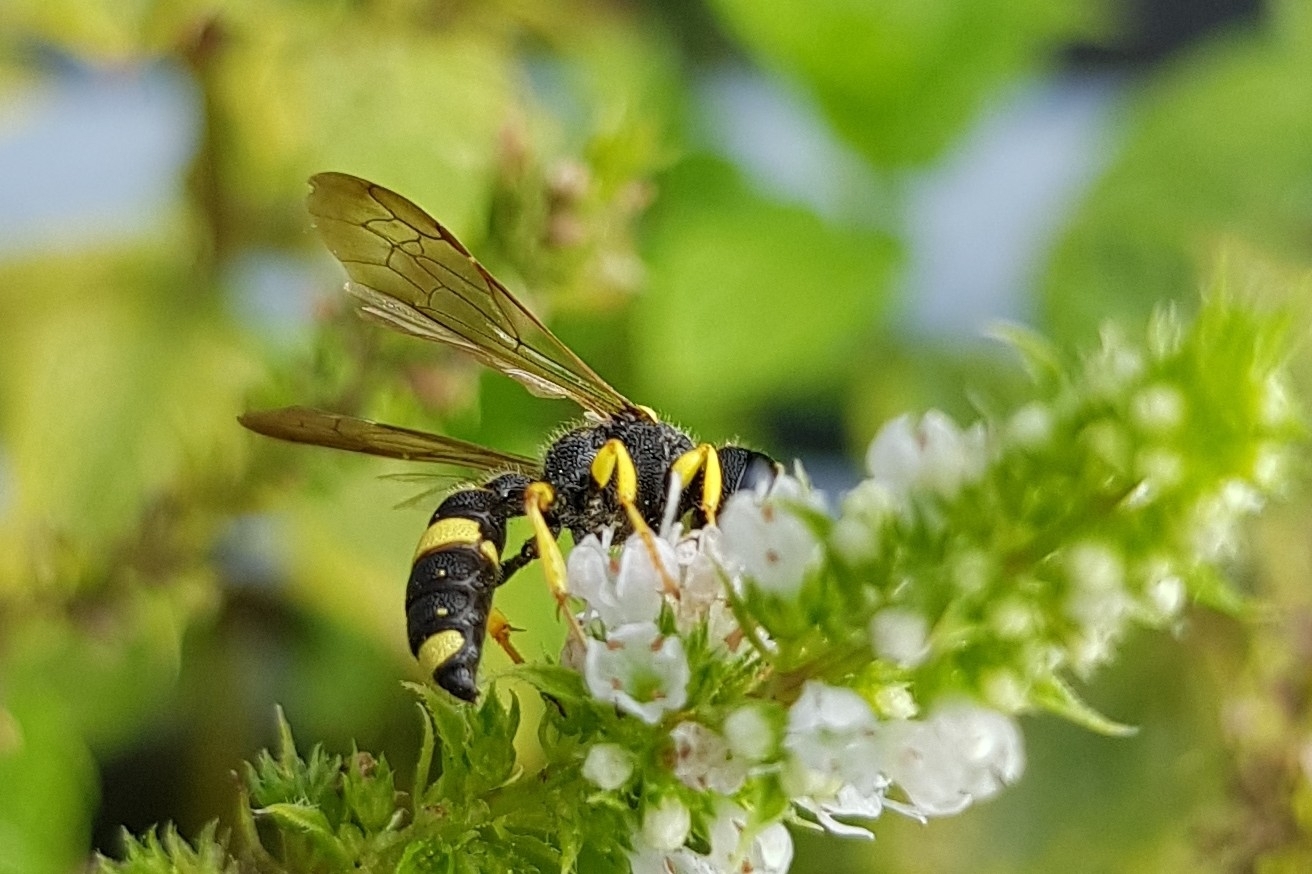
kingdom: Animalia
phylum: Arthropoda
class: Insecta
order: Hymenoptera
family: Crabronidae
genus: Cerceris
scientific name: Cerceris rybyensis
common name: Ornate tailed digger wasp
